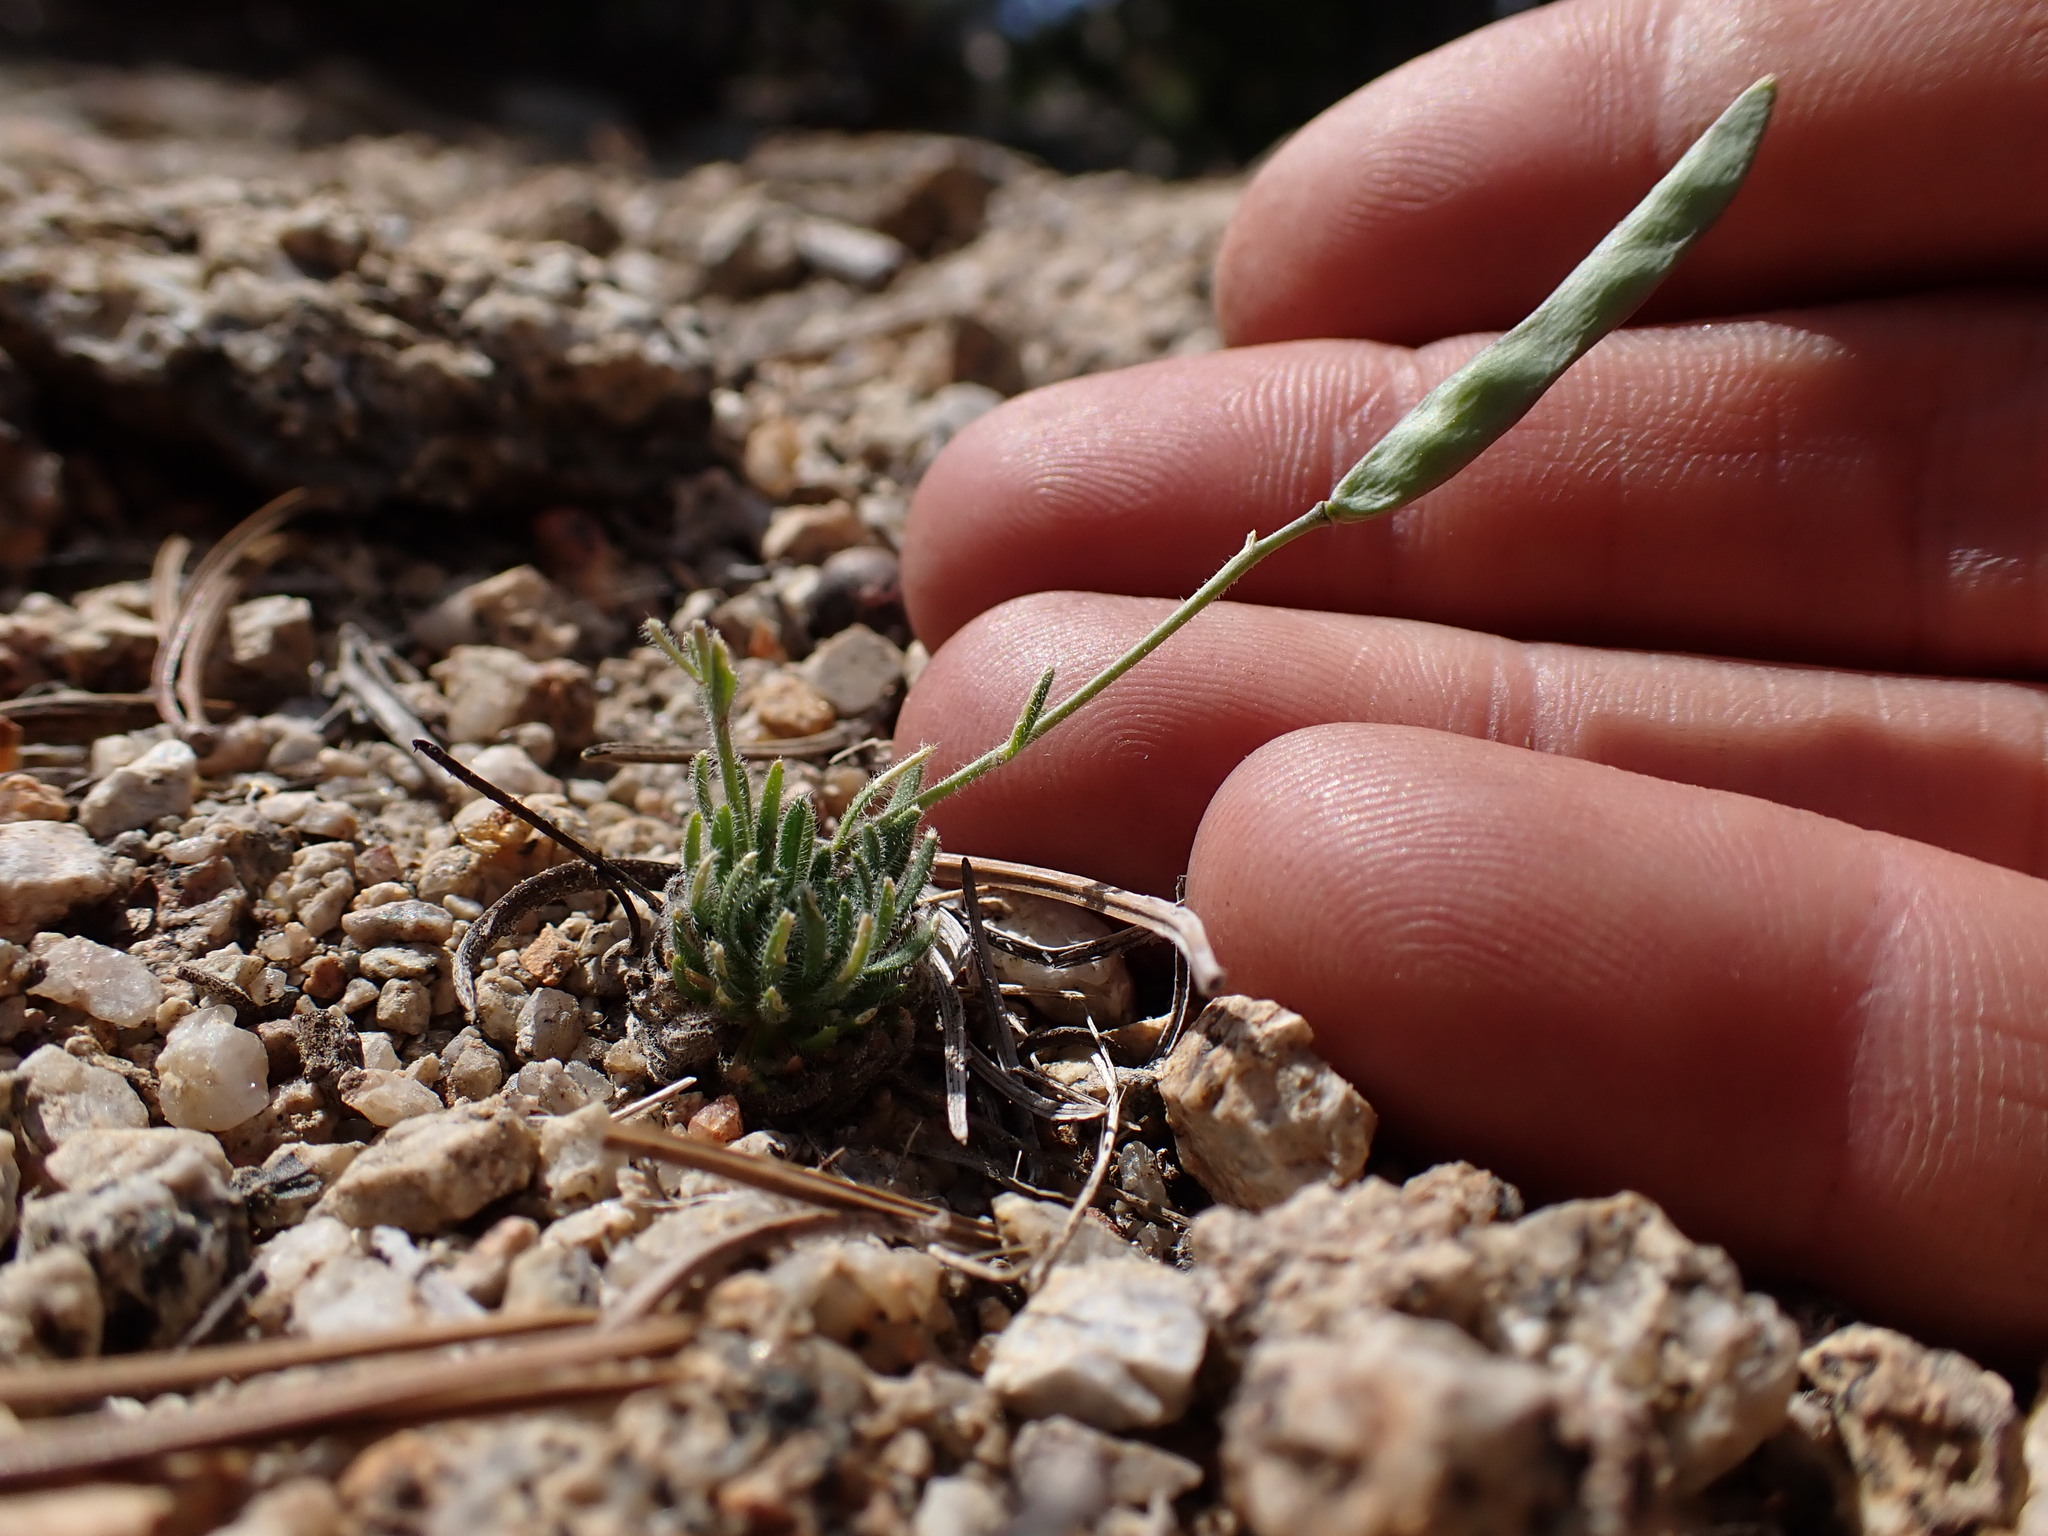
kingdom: Plantae
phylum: Tracheophyta
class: Magnoliopsida
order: Brassicales
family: Brassicaceae
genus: Boechera
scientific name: Boechera pygmaea
